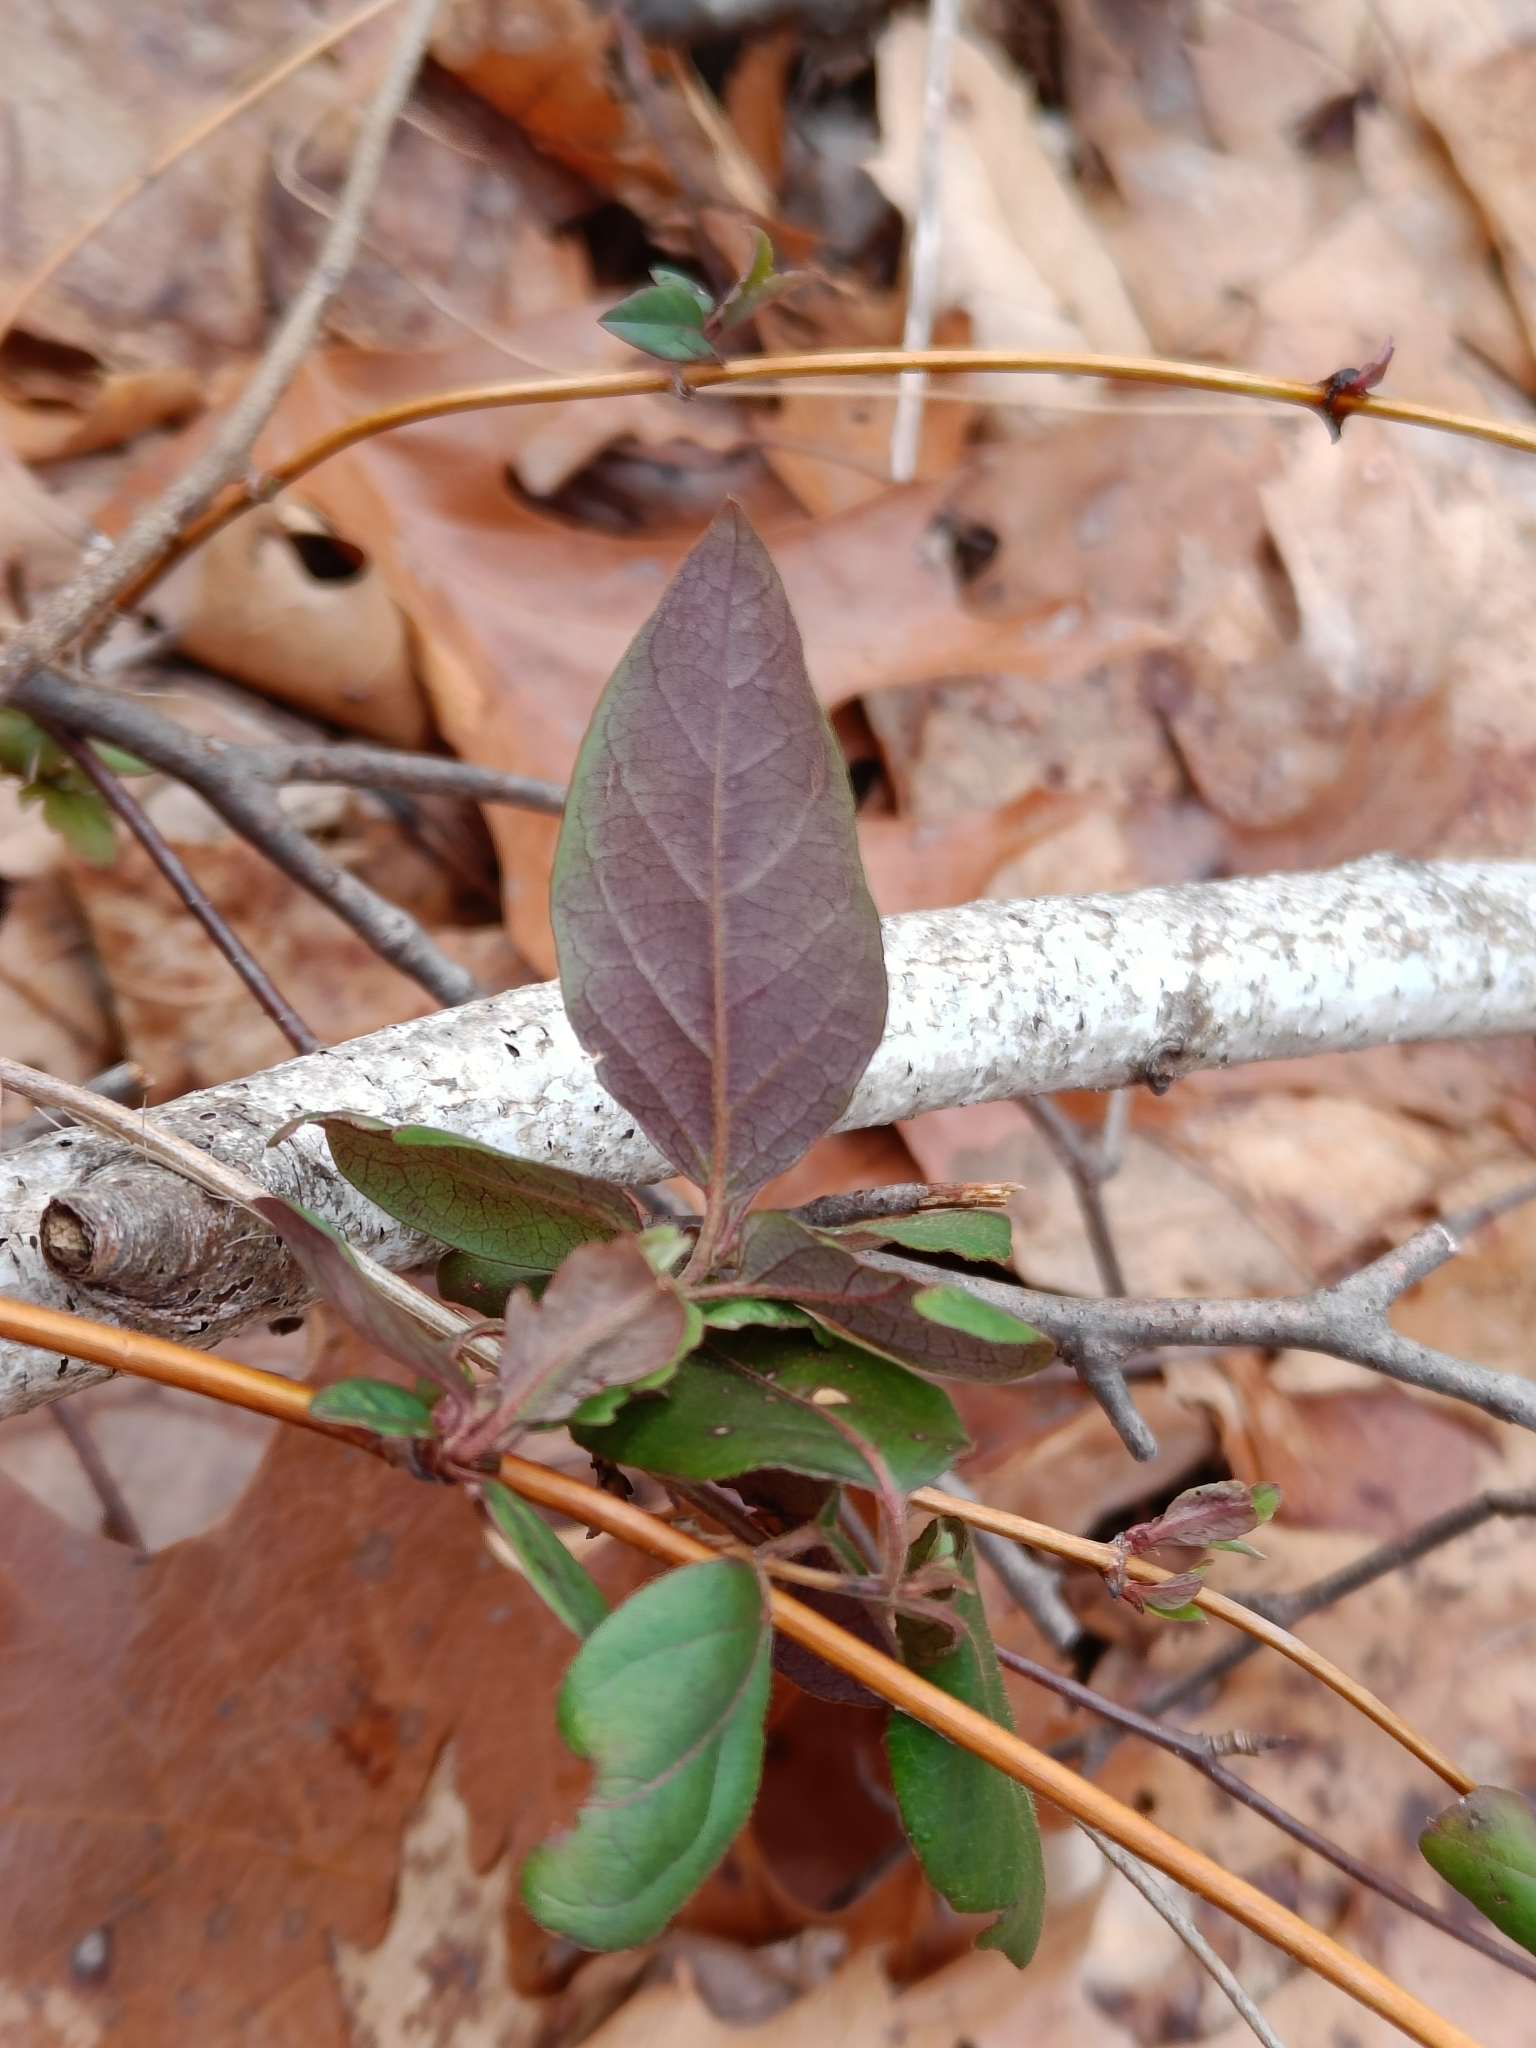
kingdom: Plantae
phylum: Tracheophyta
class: Magnoliopsida
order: Dipsacales
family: Caprifoliaceae
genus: Lonicera
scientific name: Lonicera japonica
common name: Japanese honeysuckle
